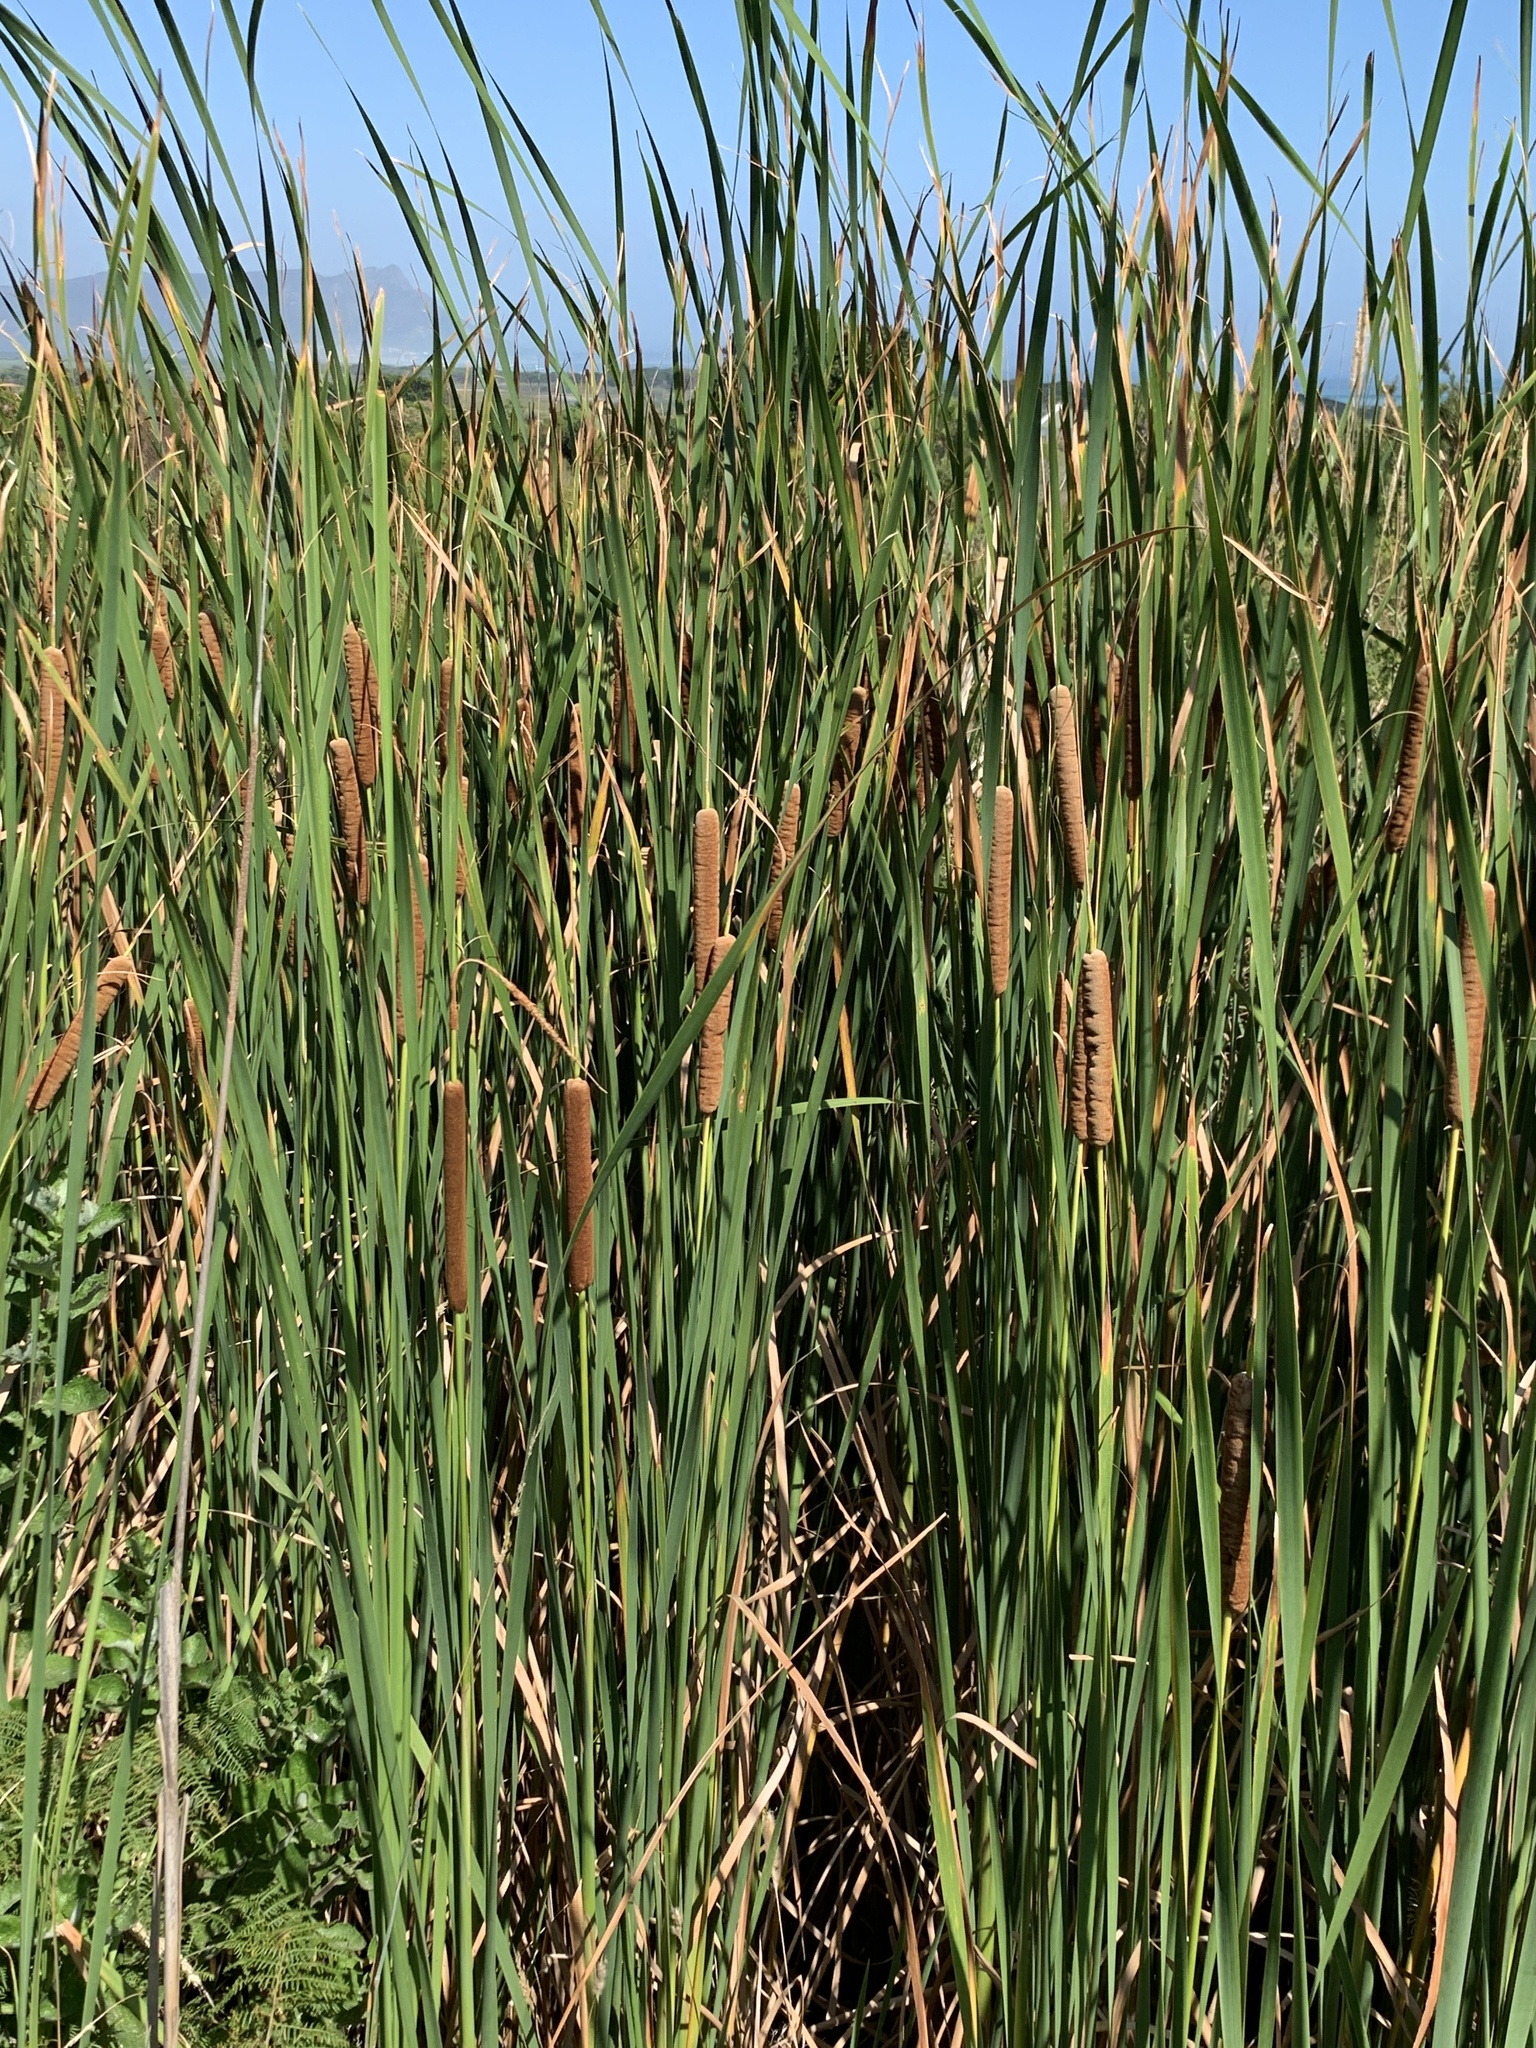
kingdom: Plantae
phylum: Tracheophyta
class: Liliopsida
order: Poales
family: Typhaceae
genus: Typha
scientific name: Typha capensis
